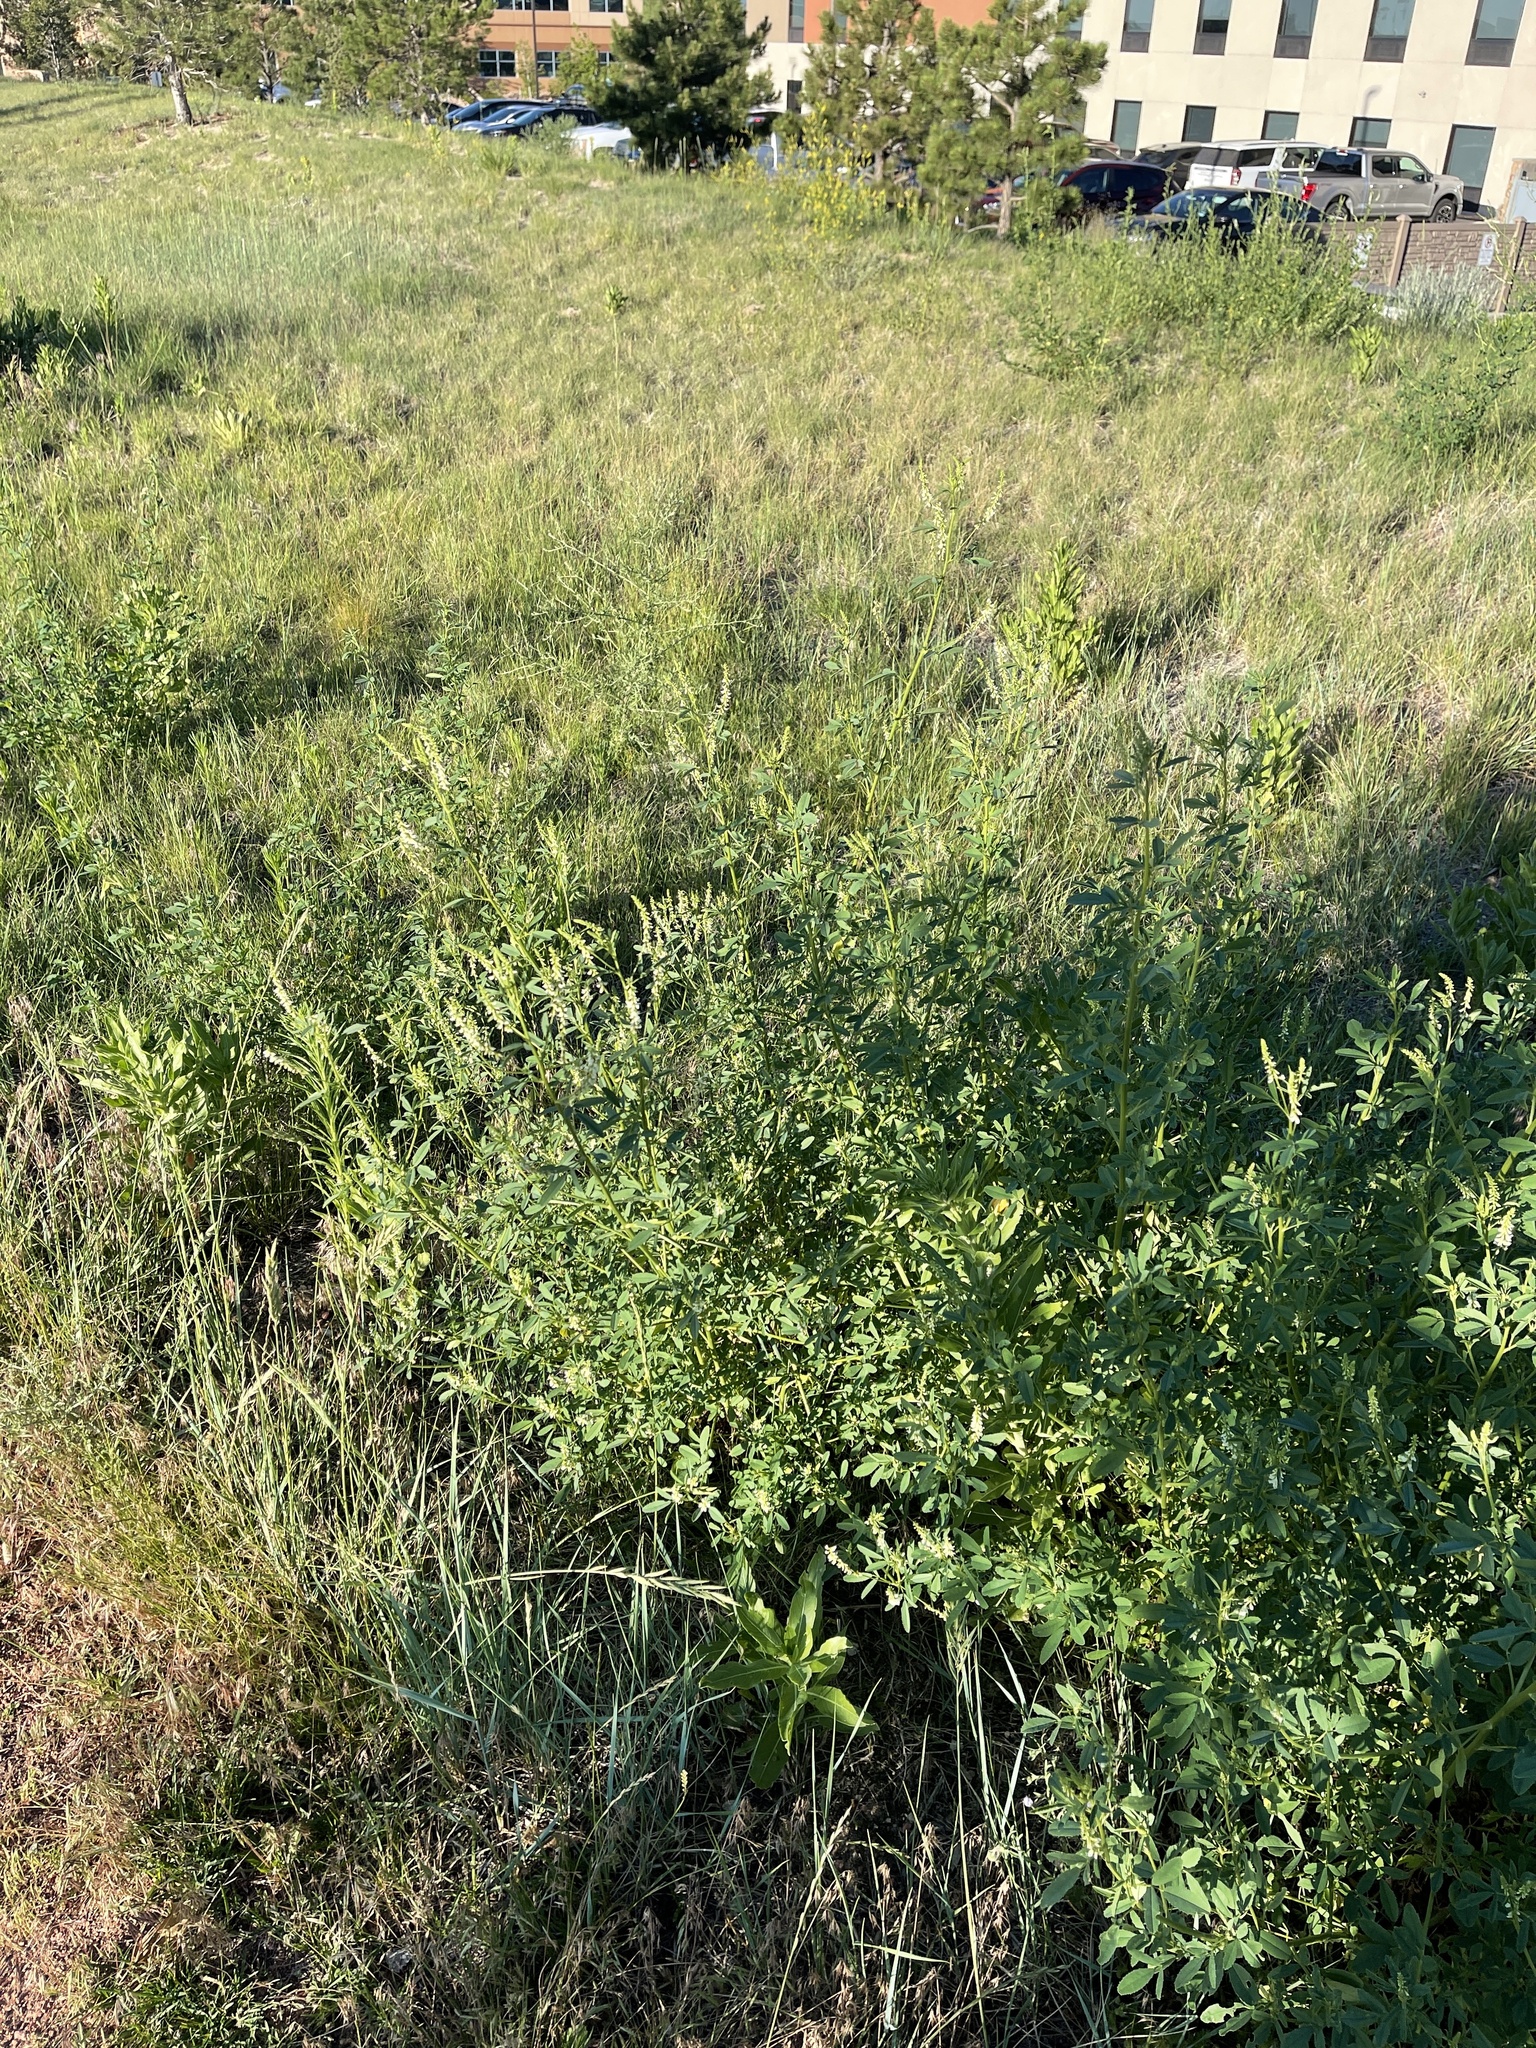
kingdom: Plantae
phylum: Tracheophyta
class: Magnoliopsida
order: Fabales
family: Fabaceae
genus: Melilotus
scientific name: Melilotus albus
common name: White melilot
